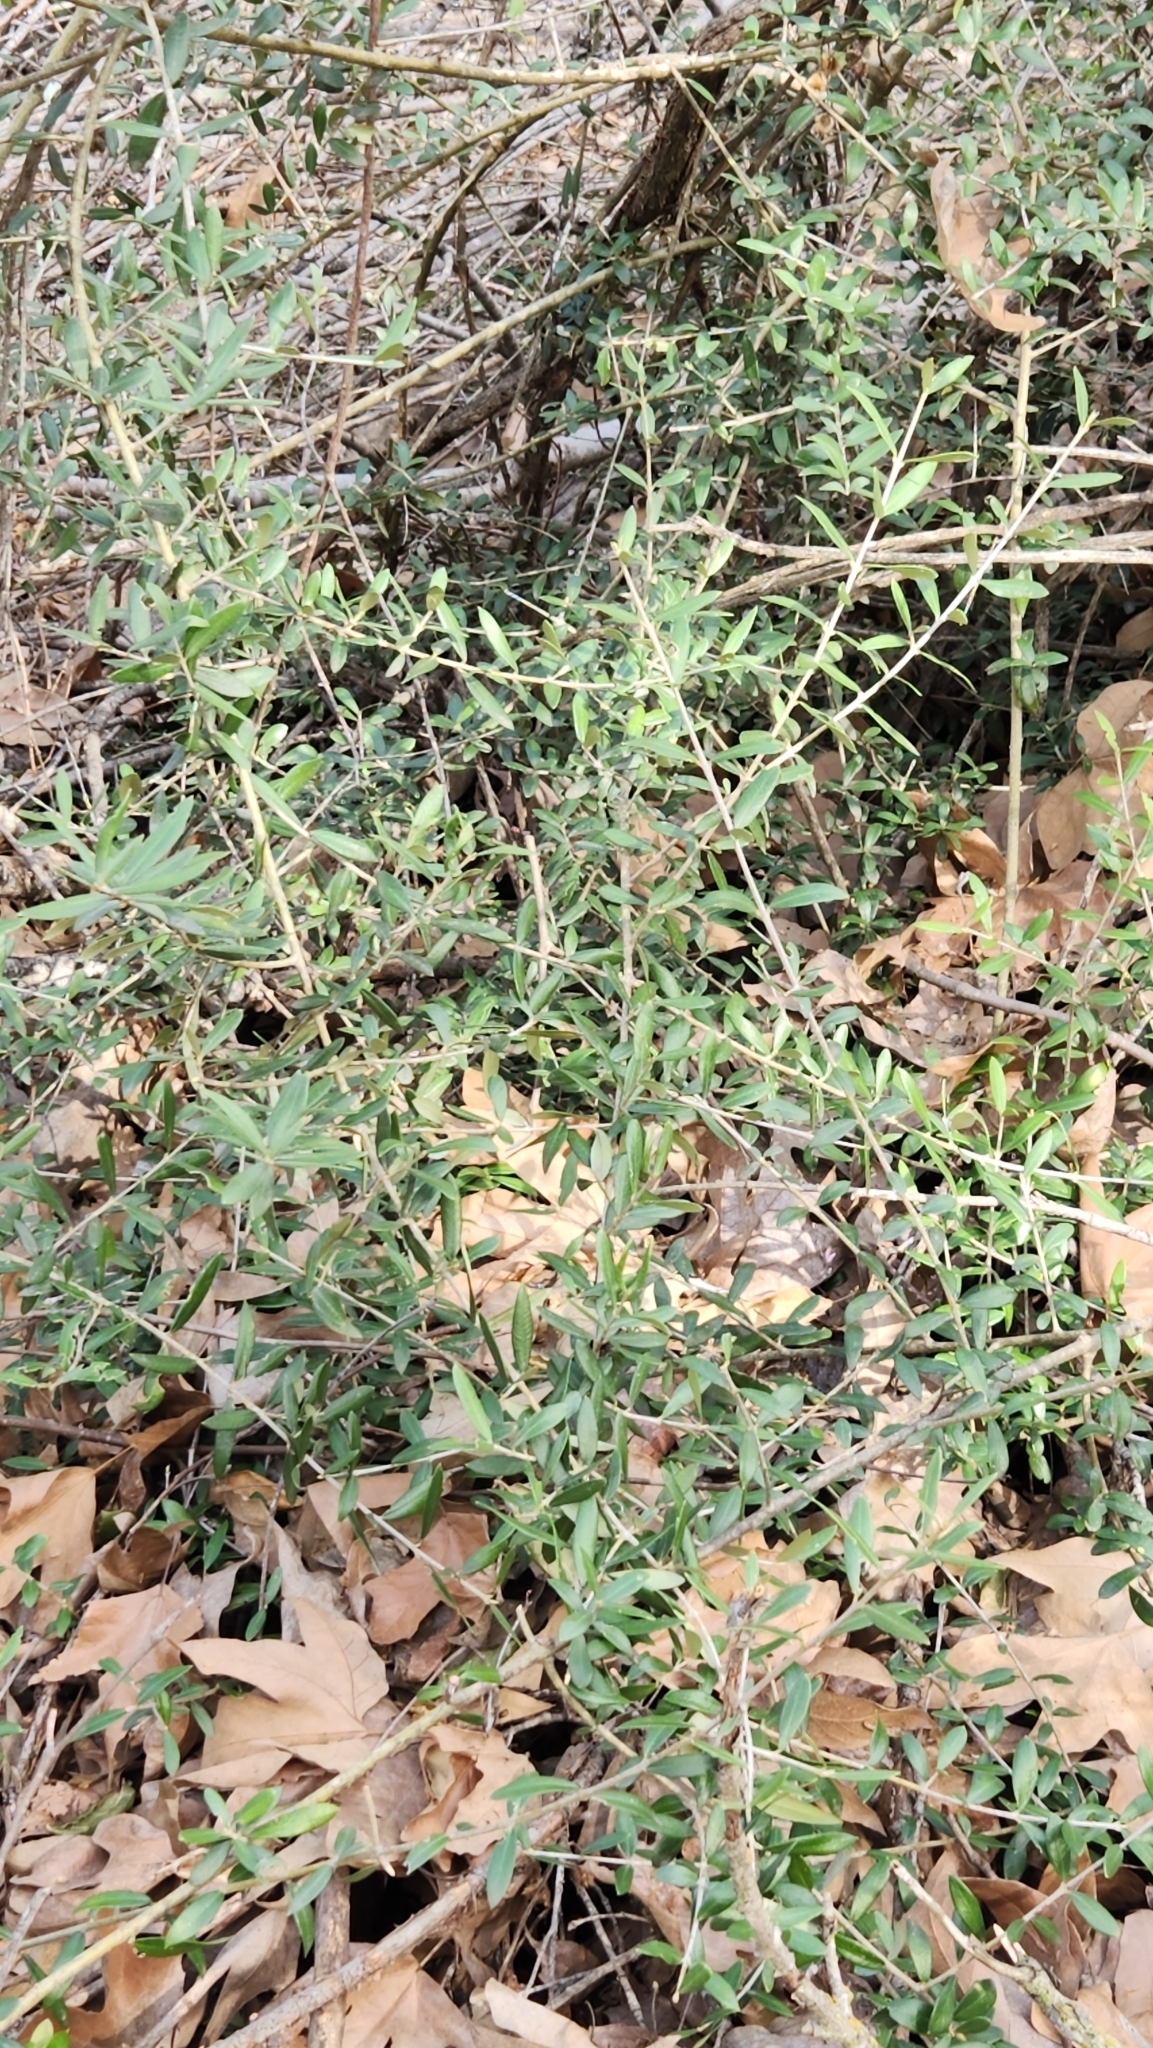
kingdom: Plantae
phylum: Tracheophyta
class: Magnoliopsida
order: Lamiales
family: Oleaceae
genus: Olea
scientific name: Olea europaea
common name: Olive
